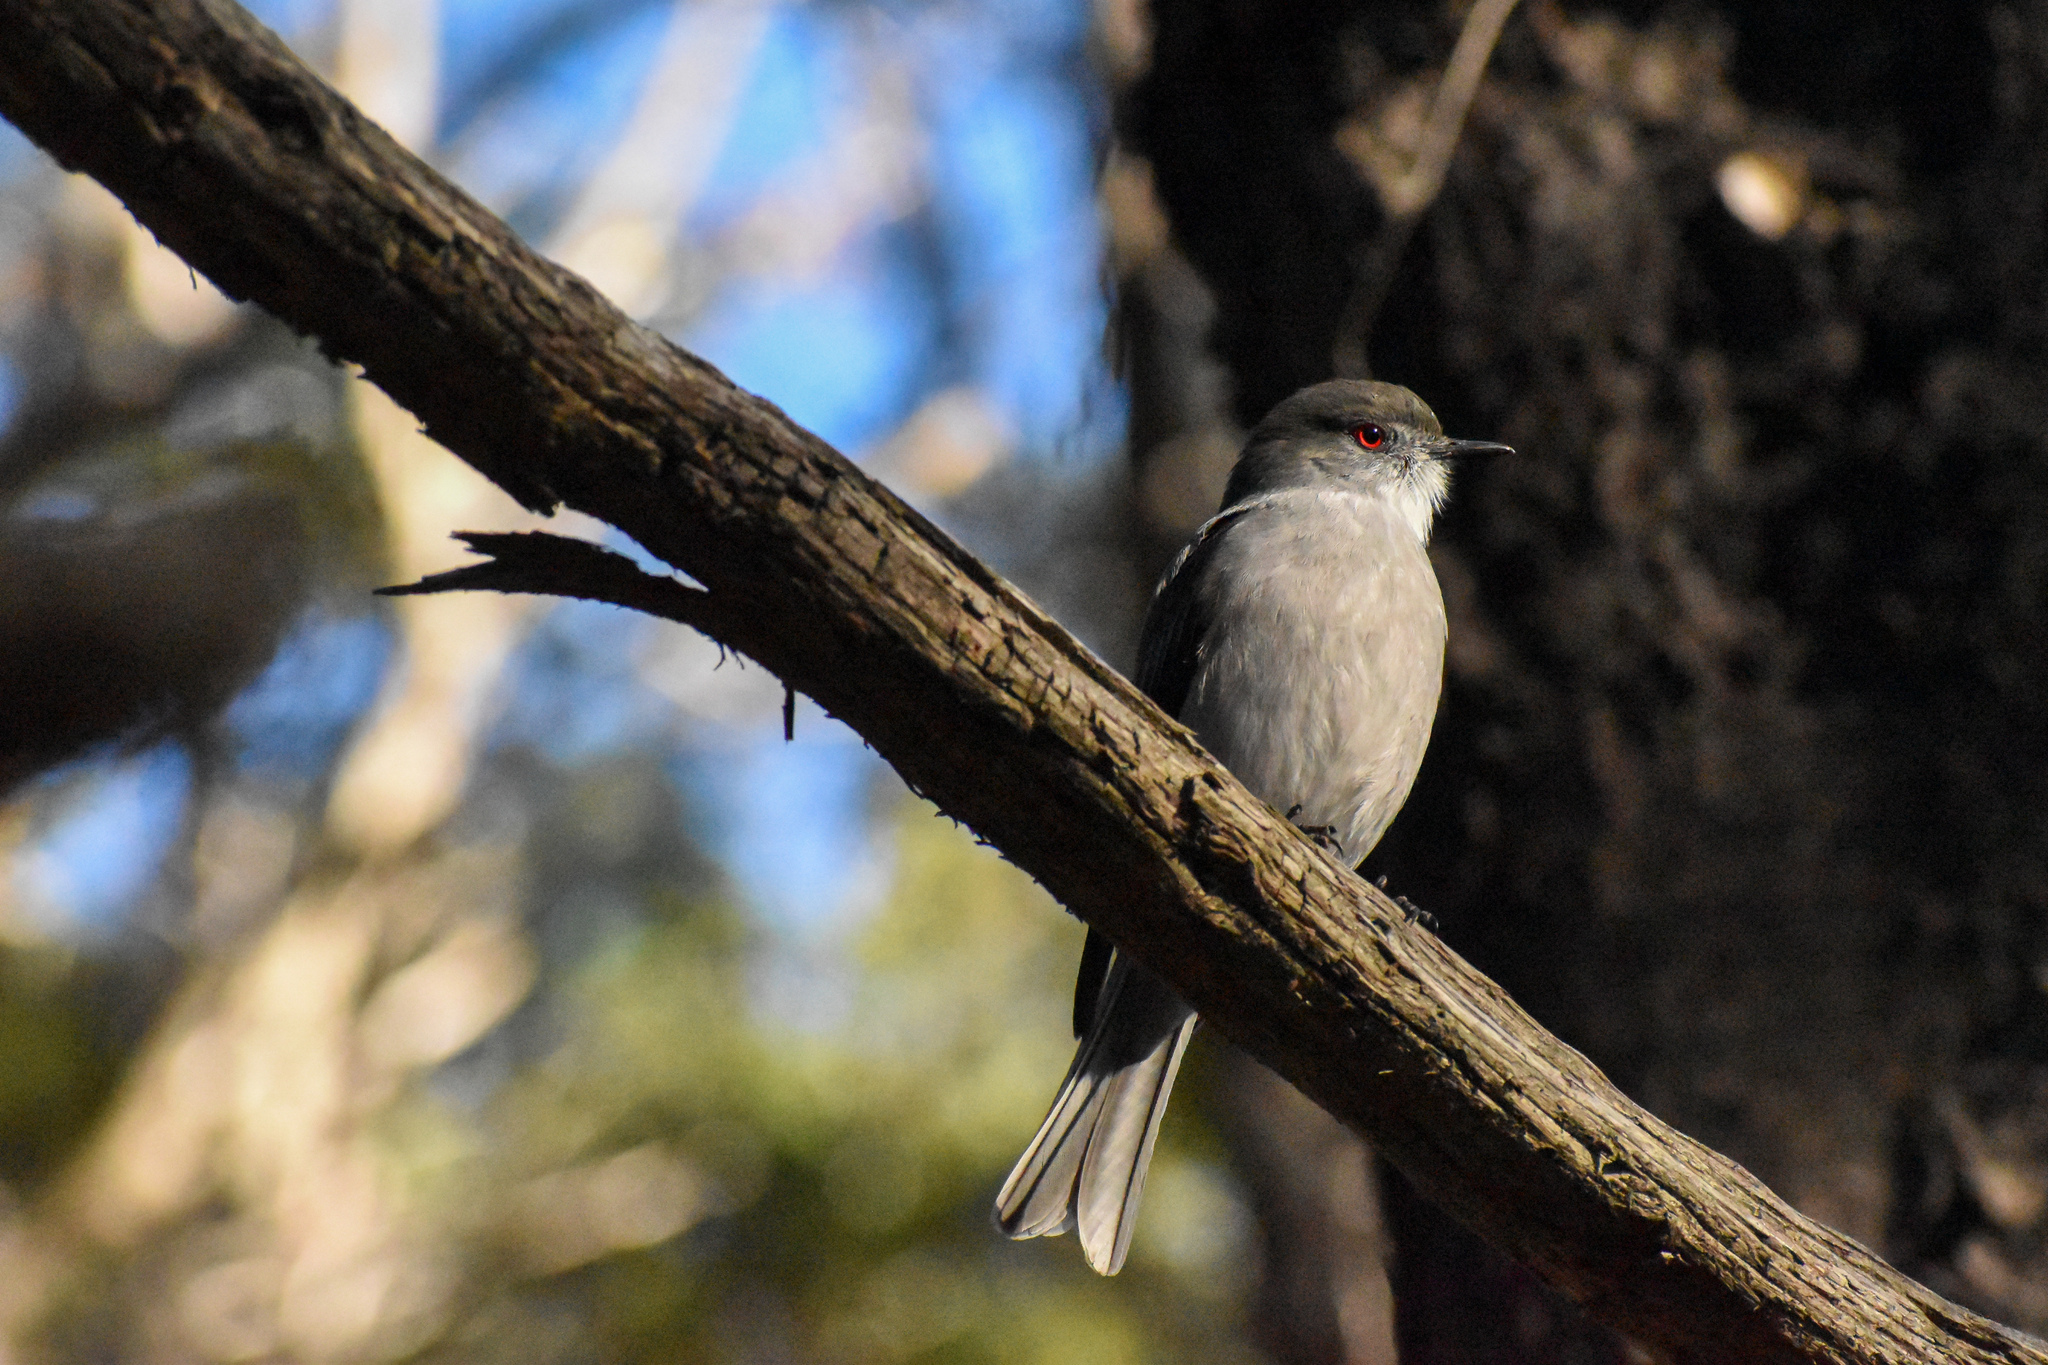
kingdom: Animalia
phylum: Chordata
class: Aves
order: Passeriformes
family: Tyrannidae
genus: Xolmis
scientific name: Xolmis pyrope
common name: Fire-eyed diucon
